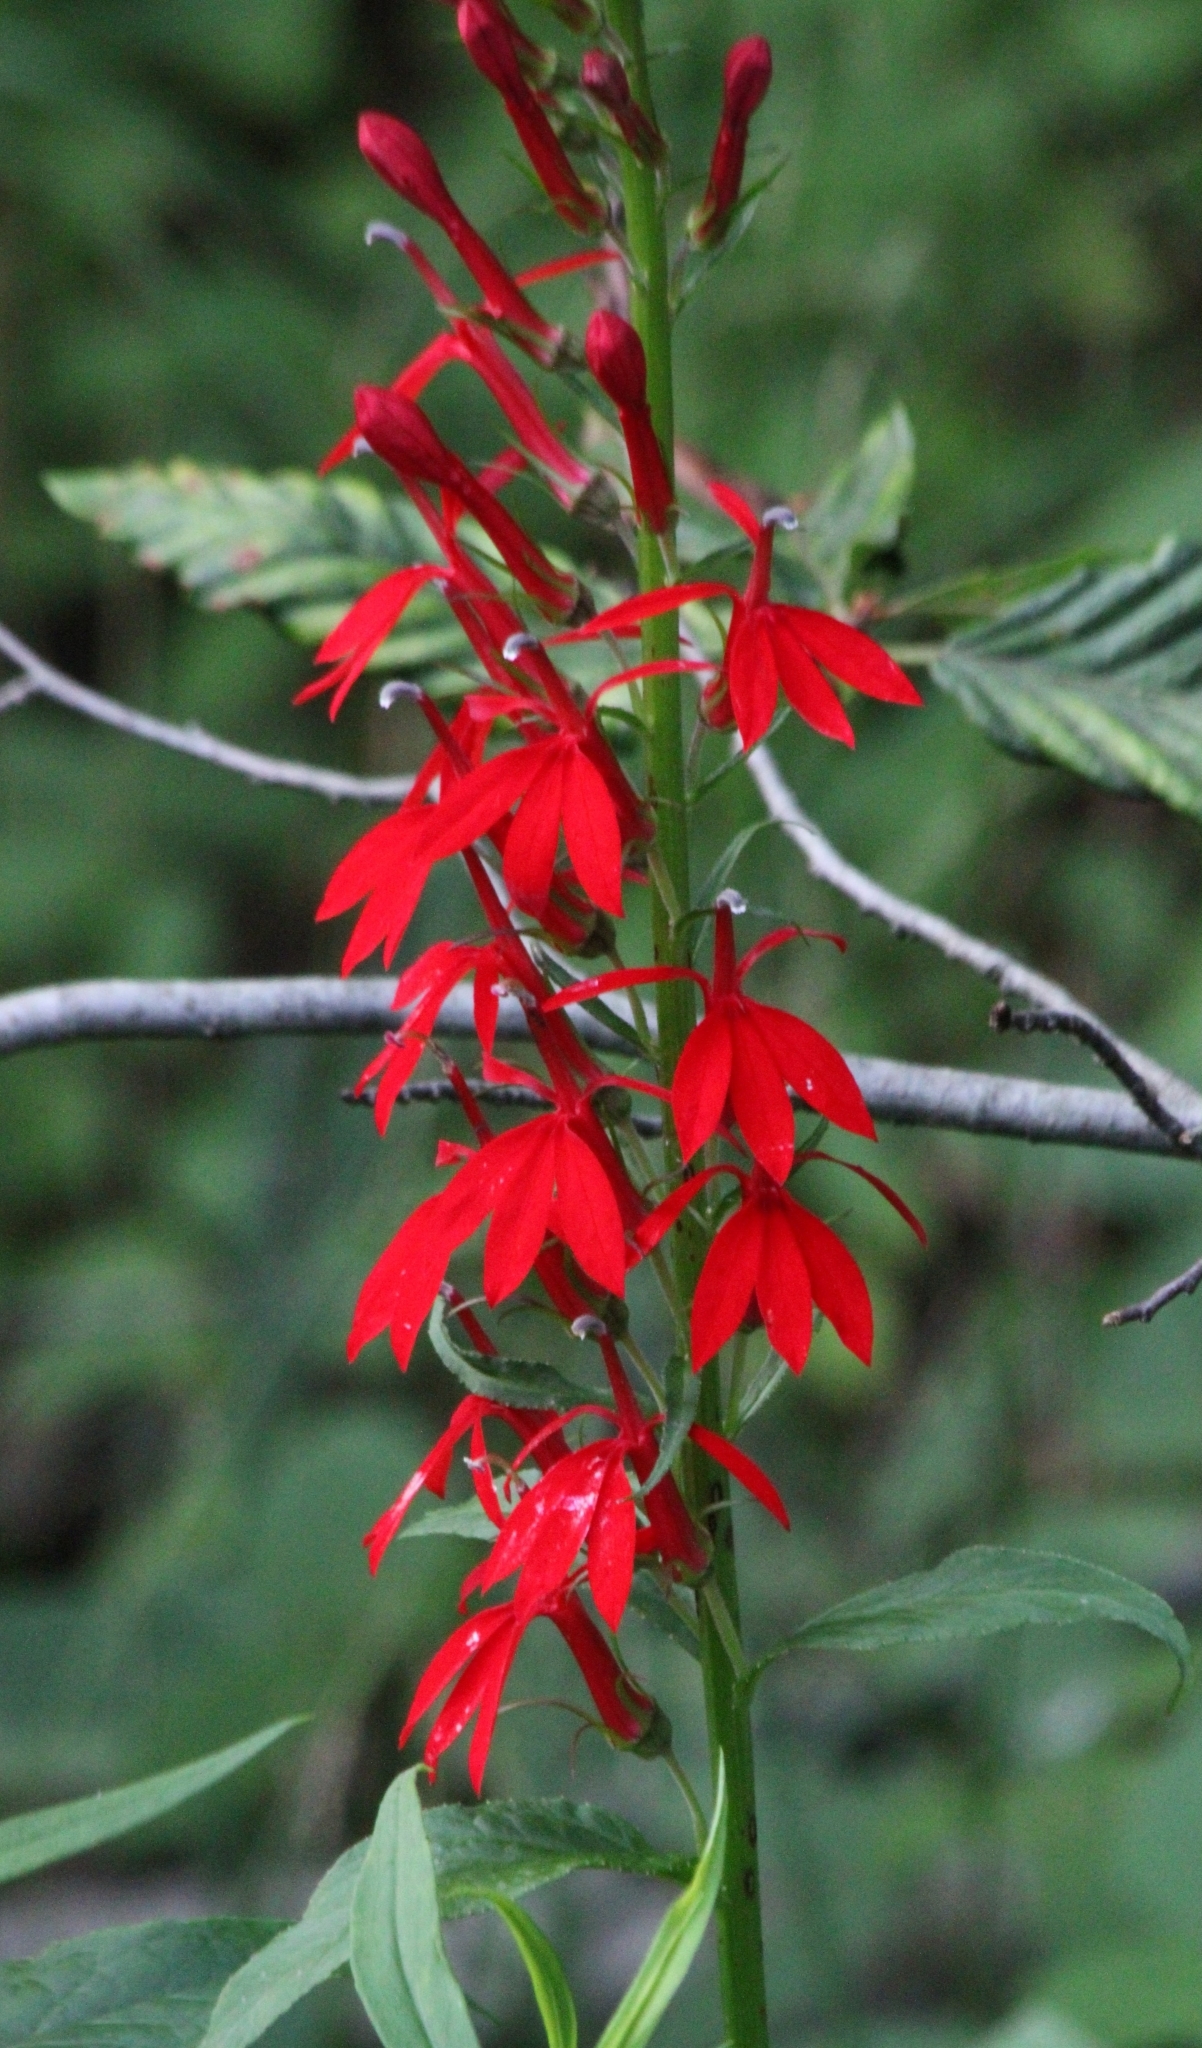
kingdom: Plantae
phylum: Tracheophyta
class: Magnoliopsida
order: Asterales
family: Campanulaceae
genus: Lobelia
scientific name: Lobelia cardinalis
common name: Cardinal flower
